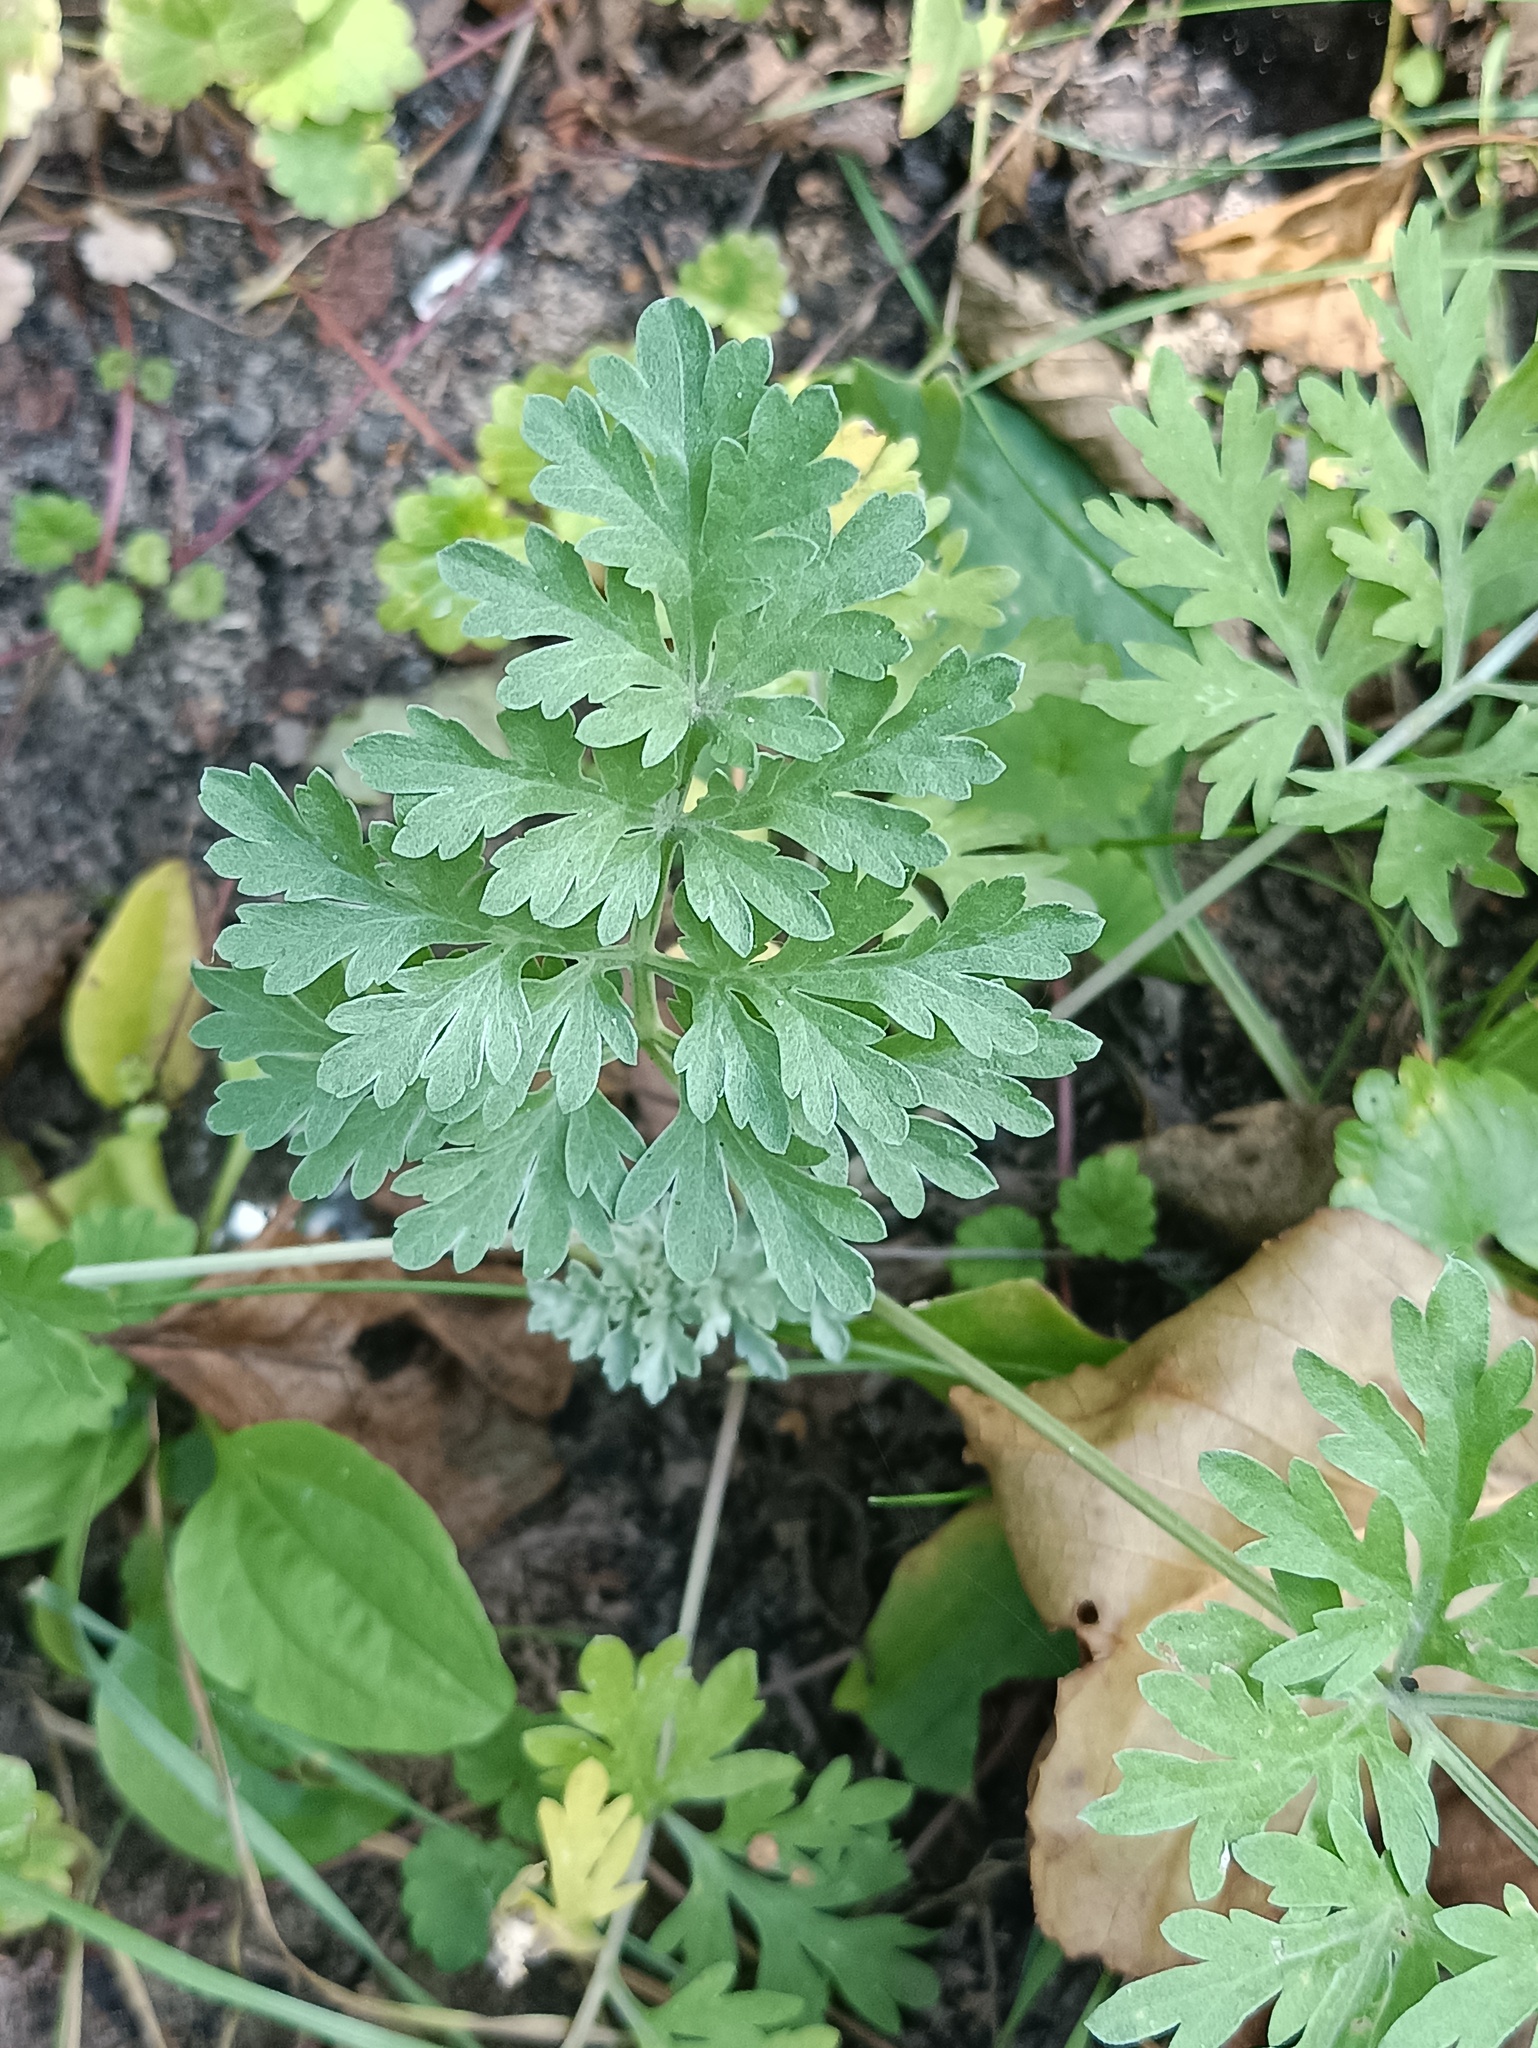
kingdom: Plantae
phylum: Tracheophyta
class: Magnoliopsida
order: Asterales
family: Asteraceae
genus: Artemisia
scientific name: Artemisia absinthium
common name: Wormwood
